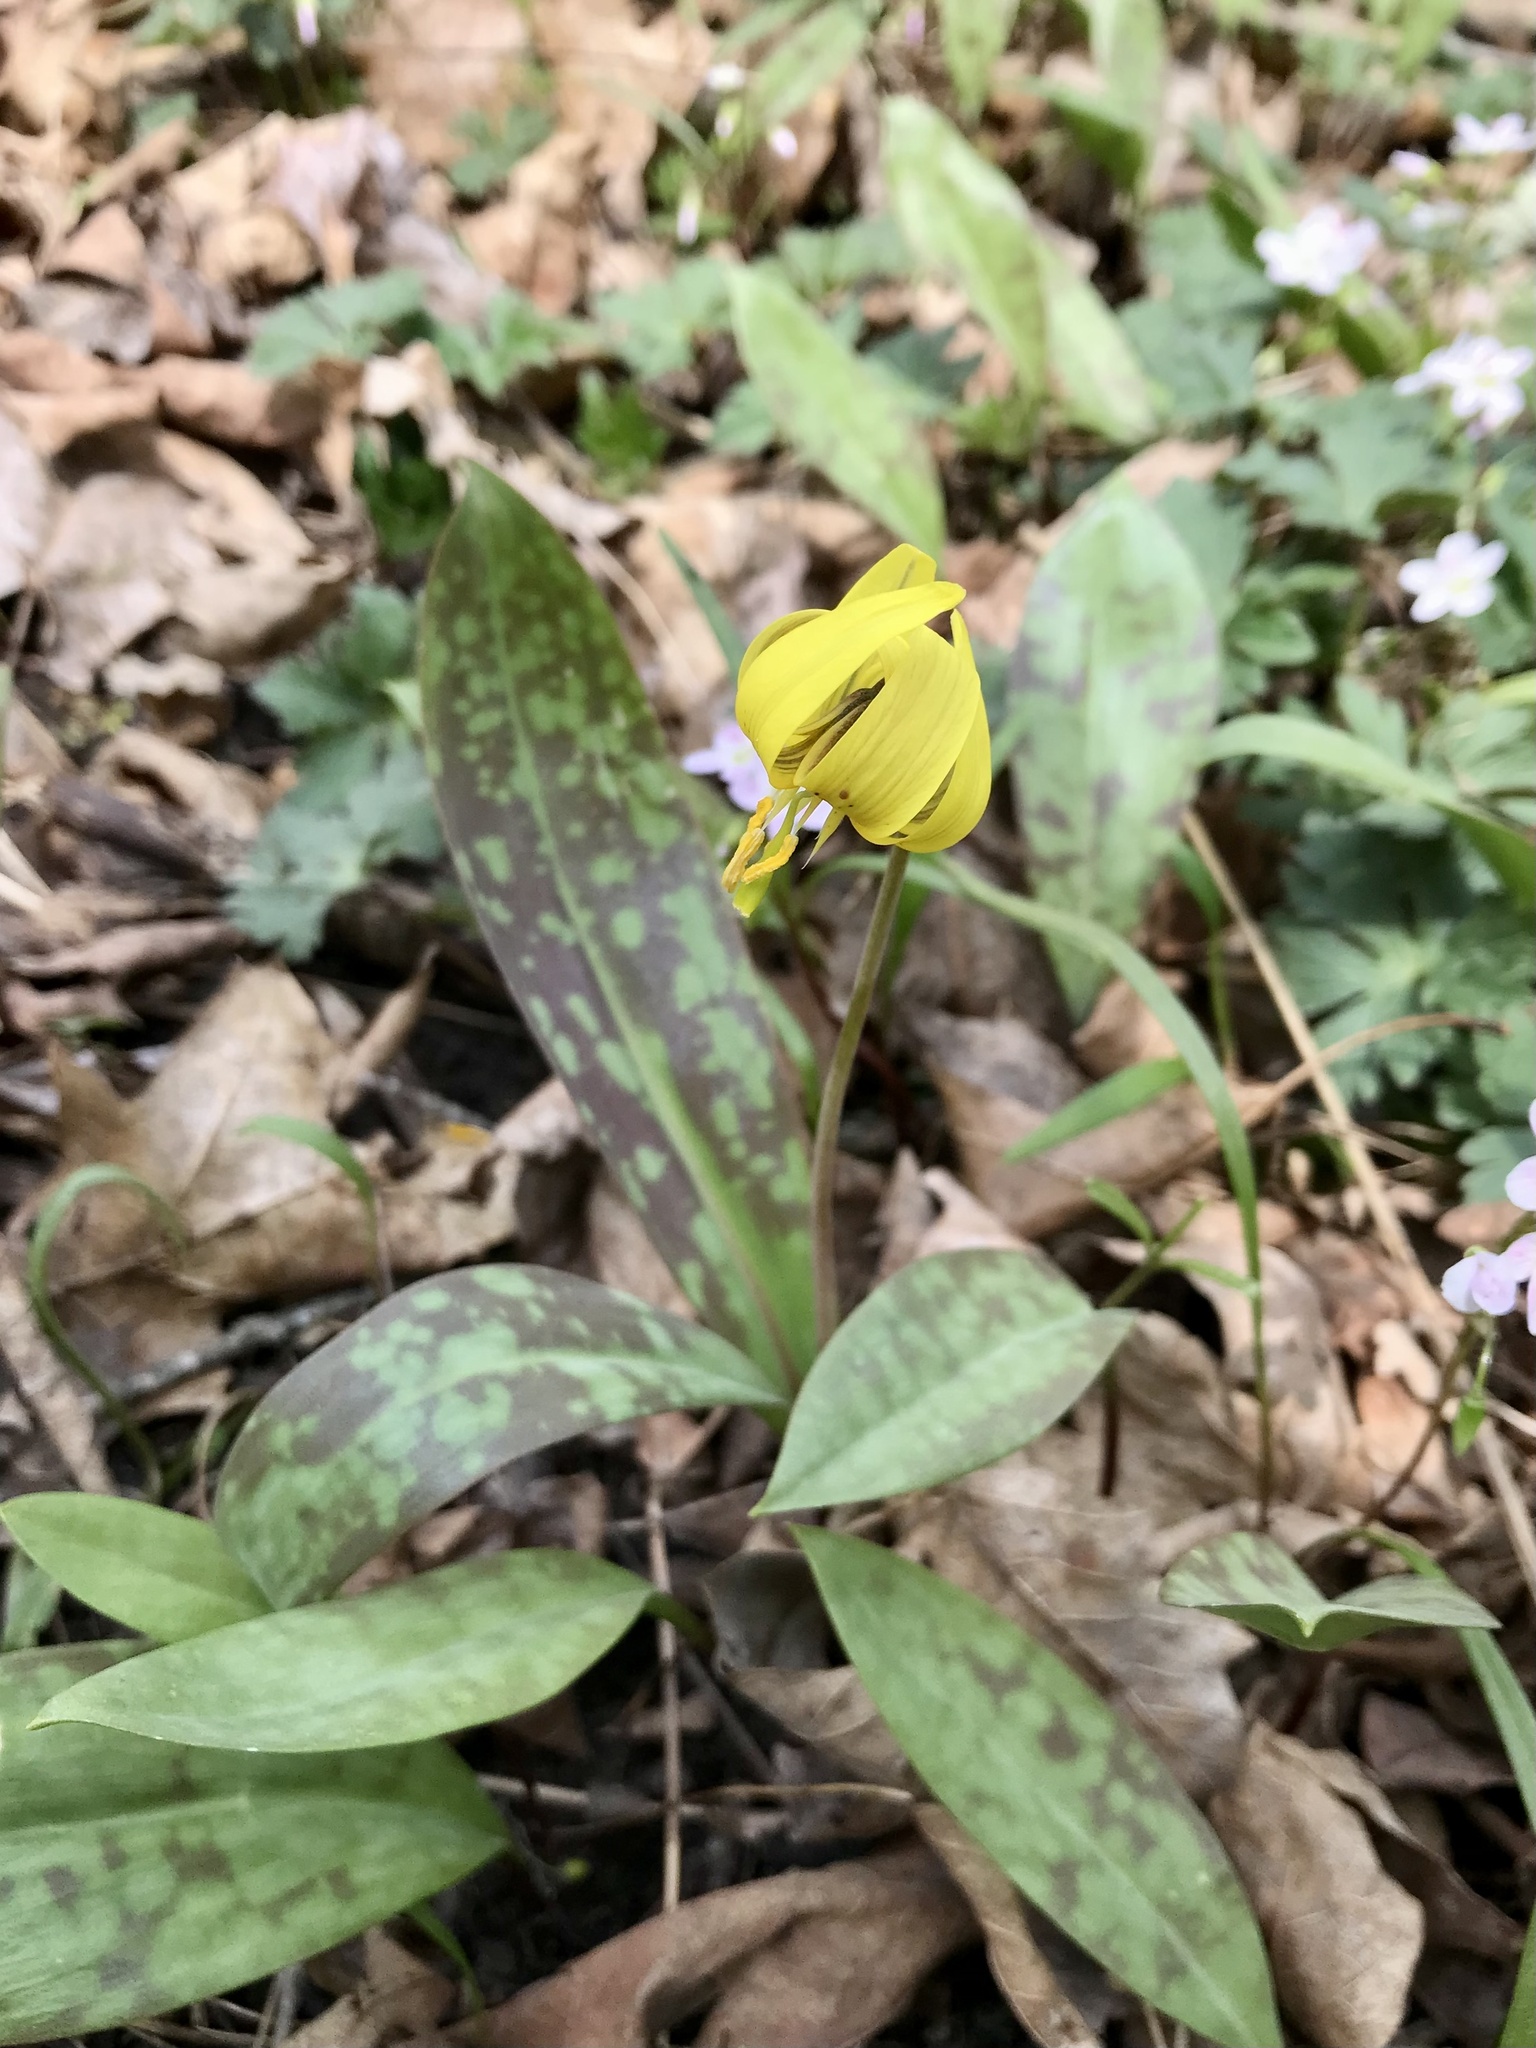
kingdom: Plantae
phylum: Tracheophyta
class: Liliopsida
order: Liliales
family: Liliaceae
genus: Erythronium
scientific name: Erythronium americanum
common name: Yellow adder's-tongue
